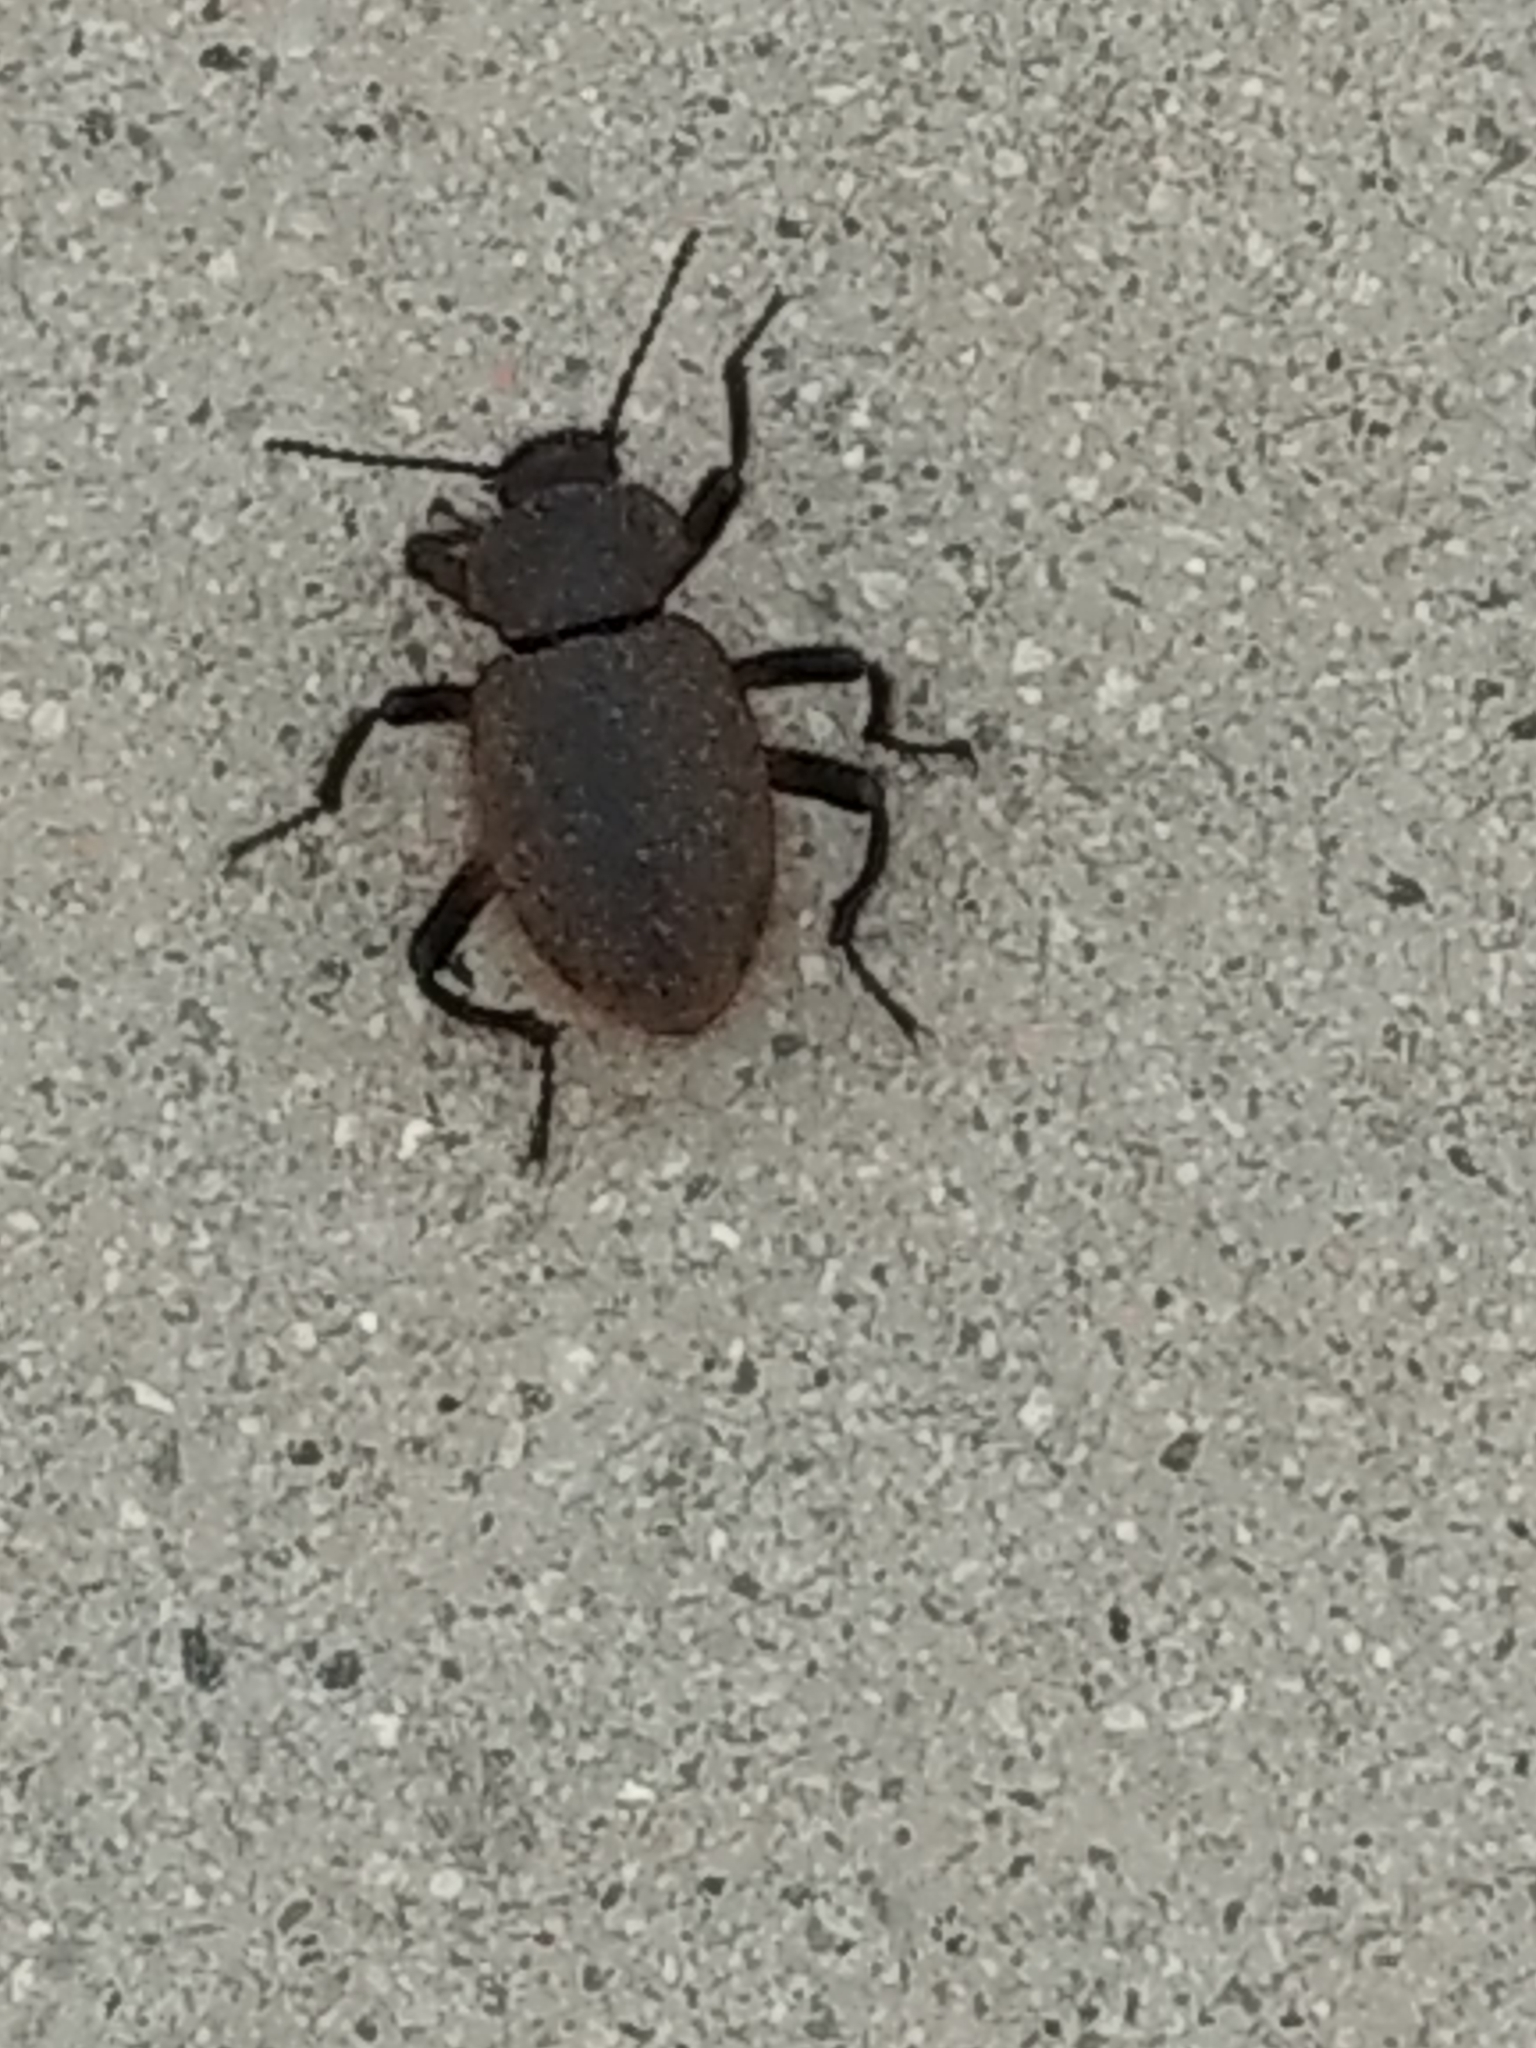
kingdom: Animalia
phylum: Arthropoda
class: Insecta
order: Coleoptera
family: Tenebrionidae
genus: Eleodes
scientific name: Eleodes osculans
